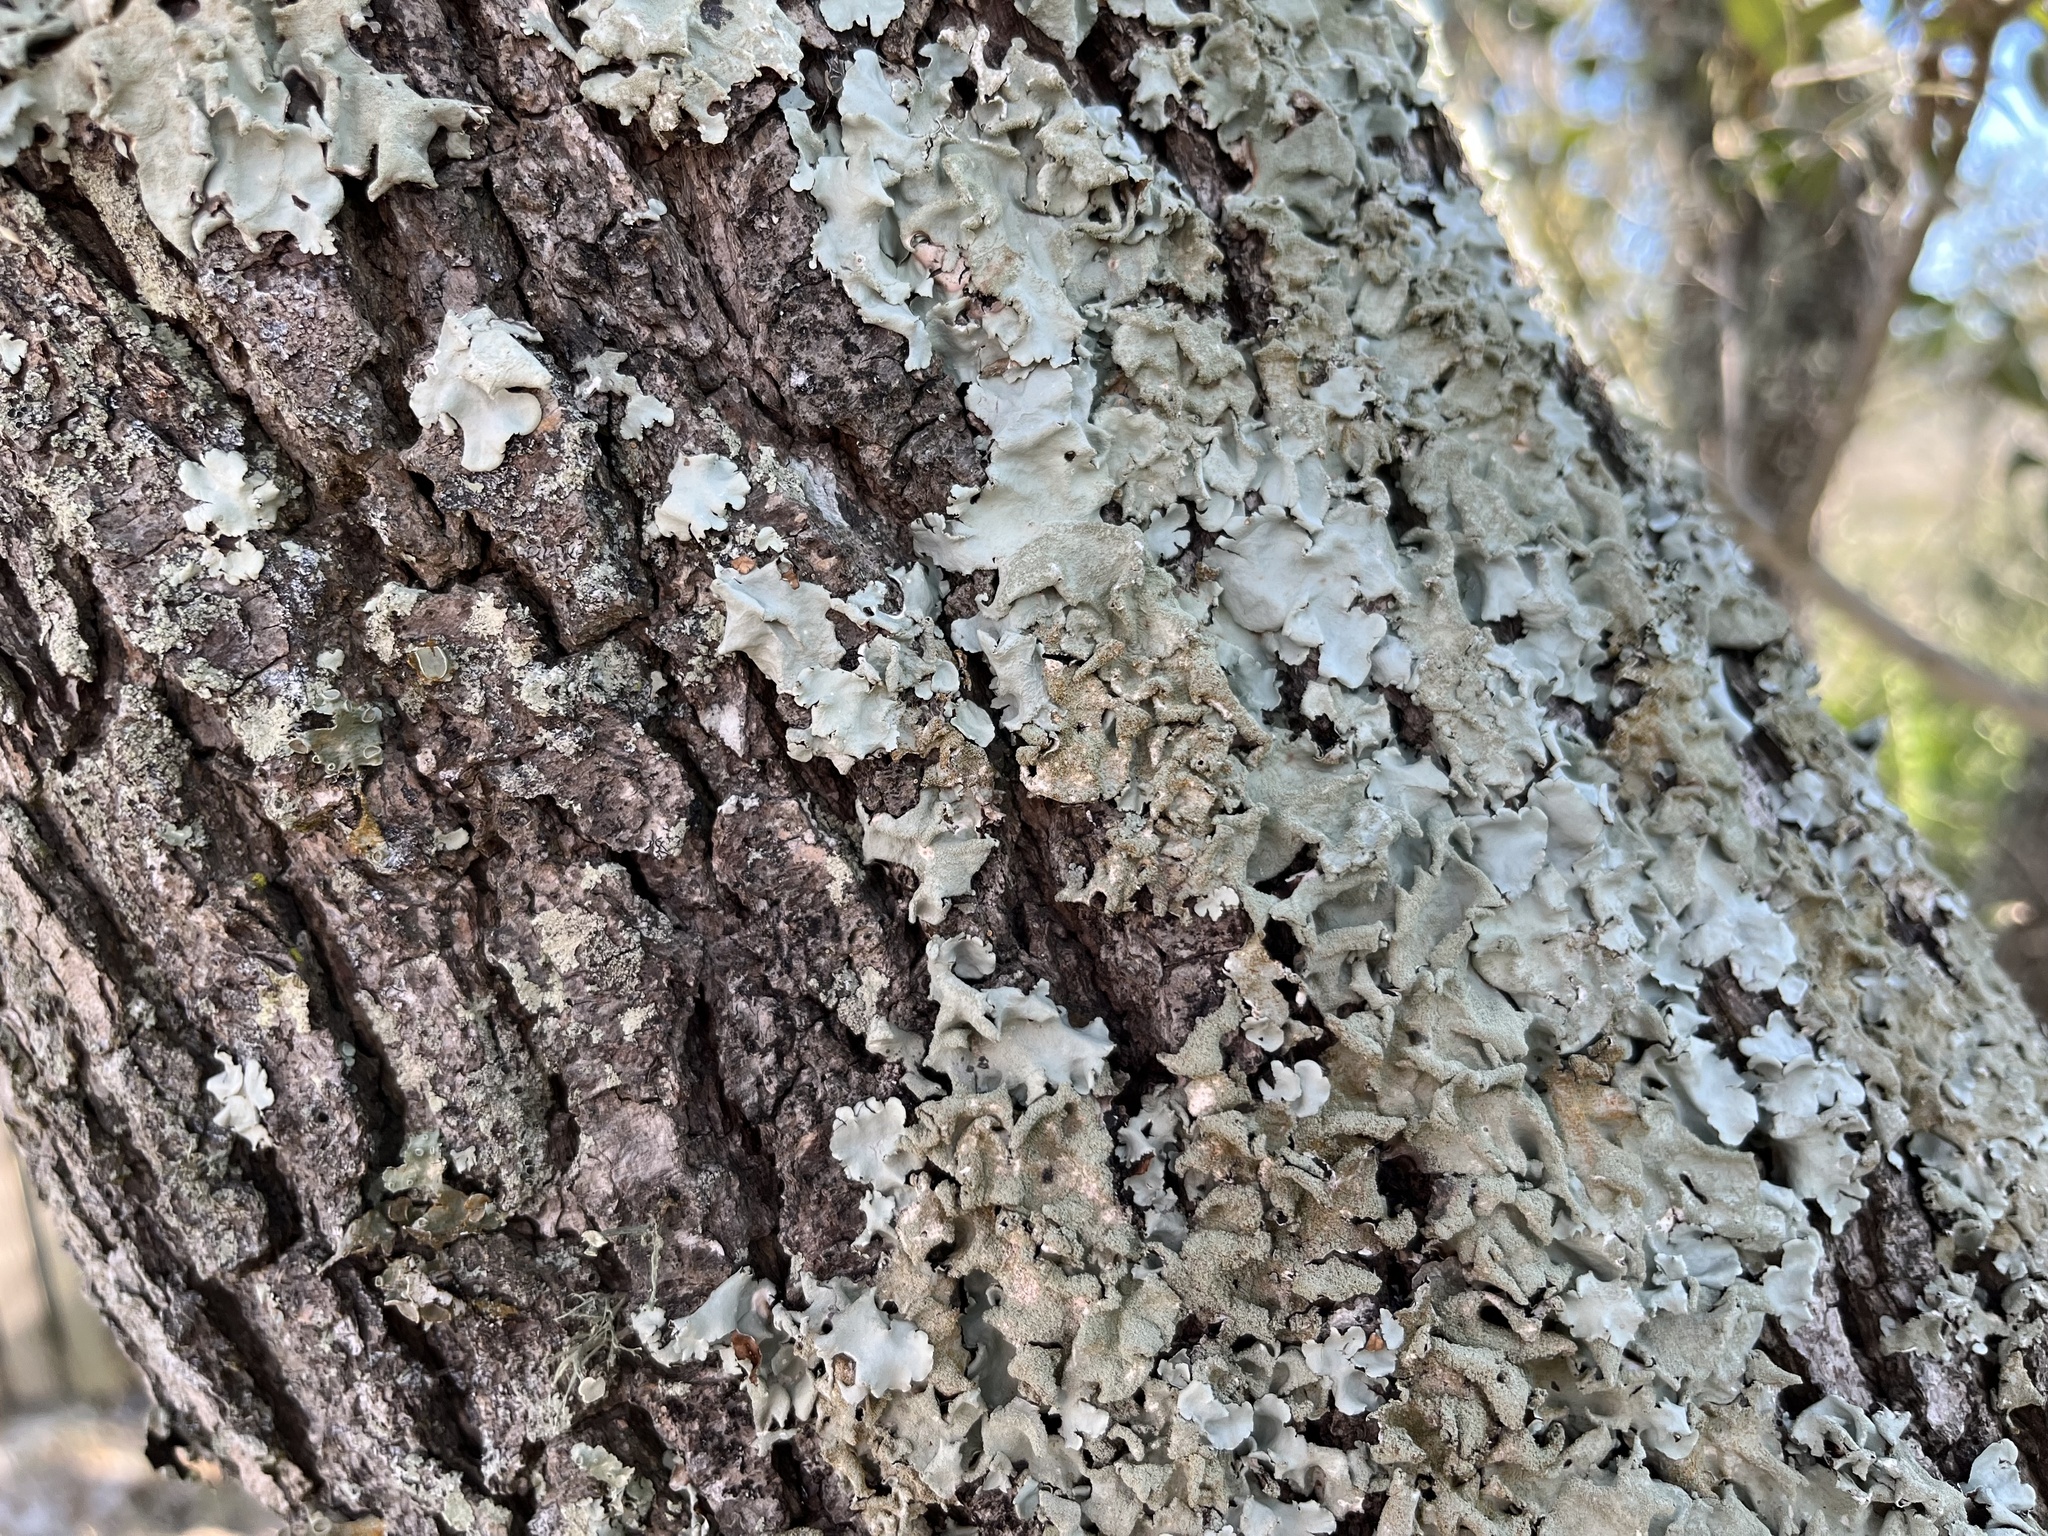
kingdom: Fungi
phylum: Ascomycota
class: Lecanoromycetes
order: Lecanorales
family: Parmeliaceae
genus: Parmotrema
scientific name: Parmotrema tinctorum
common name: Old gray ruffles
